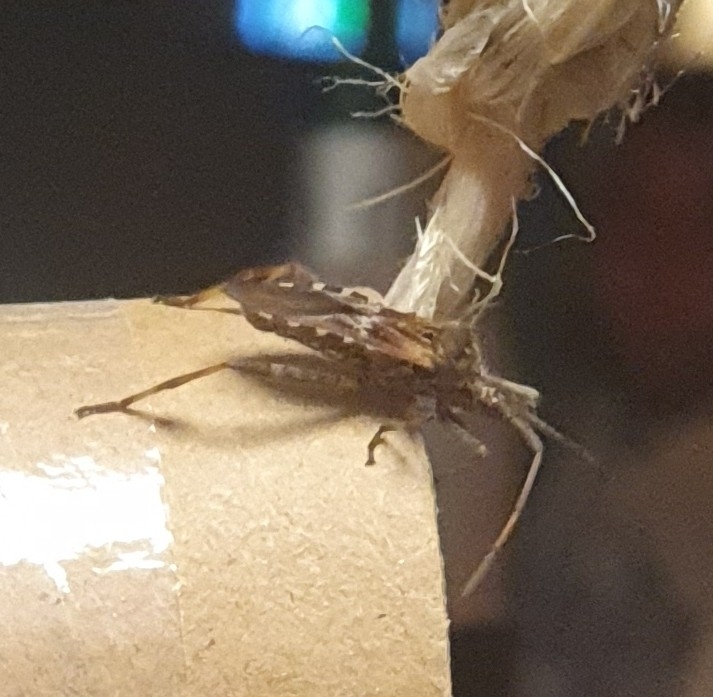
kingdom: Animalia
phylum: Arthropoda
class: Insecta
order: Hemiptera
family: Coreidae
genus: Leptoglossus
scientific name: Leptoglossus occidentalis
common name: Western conifer-seed bug
